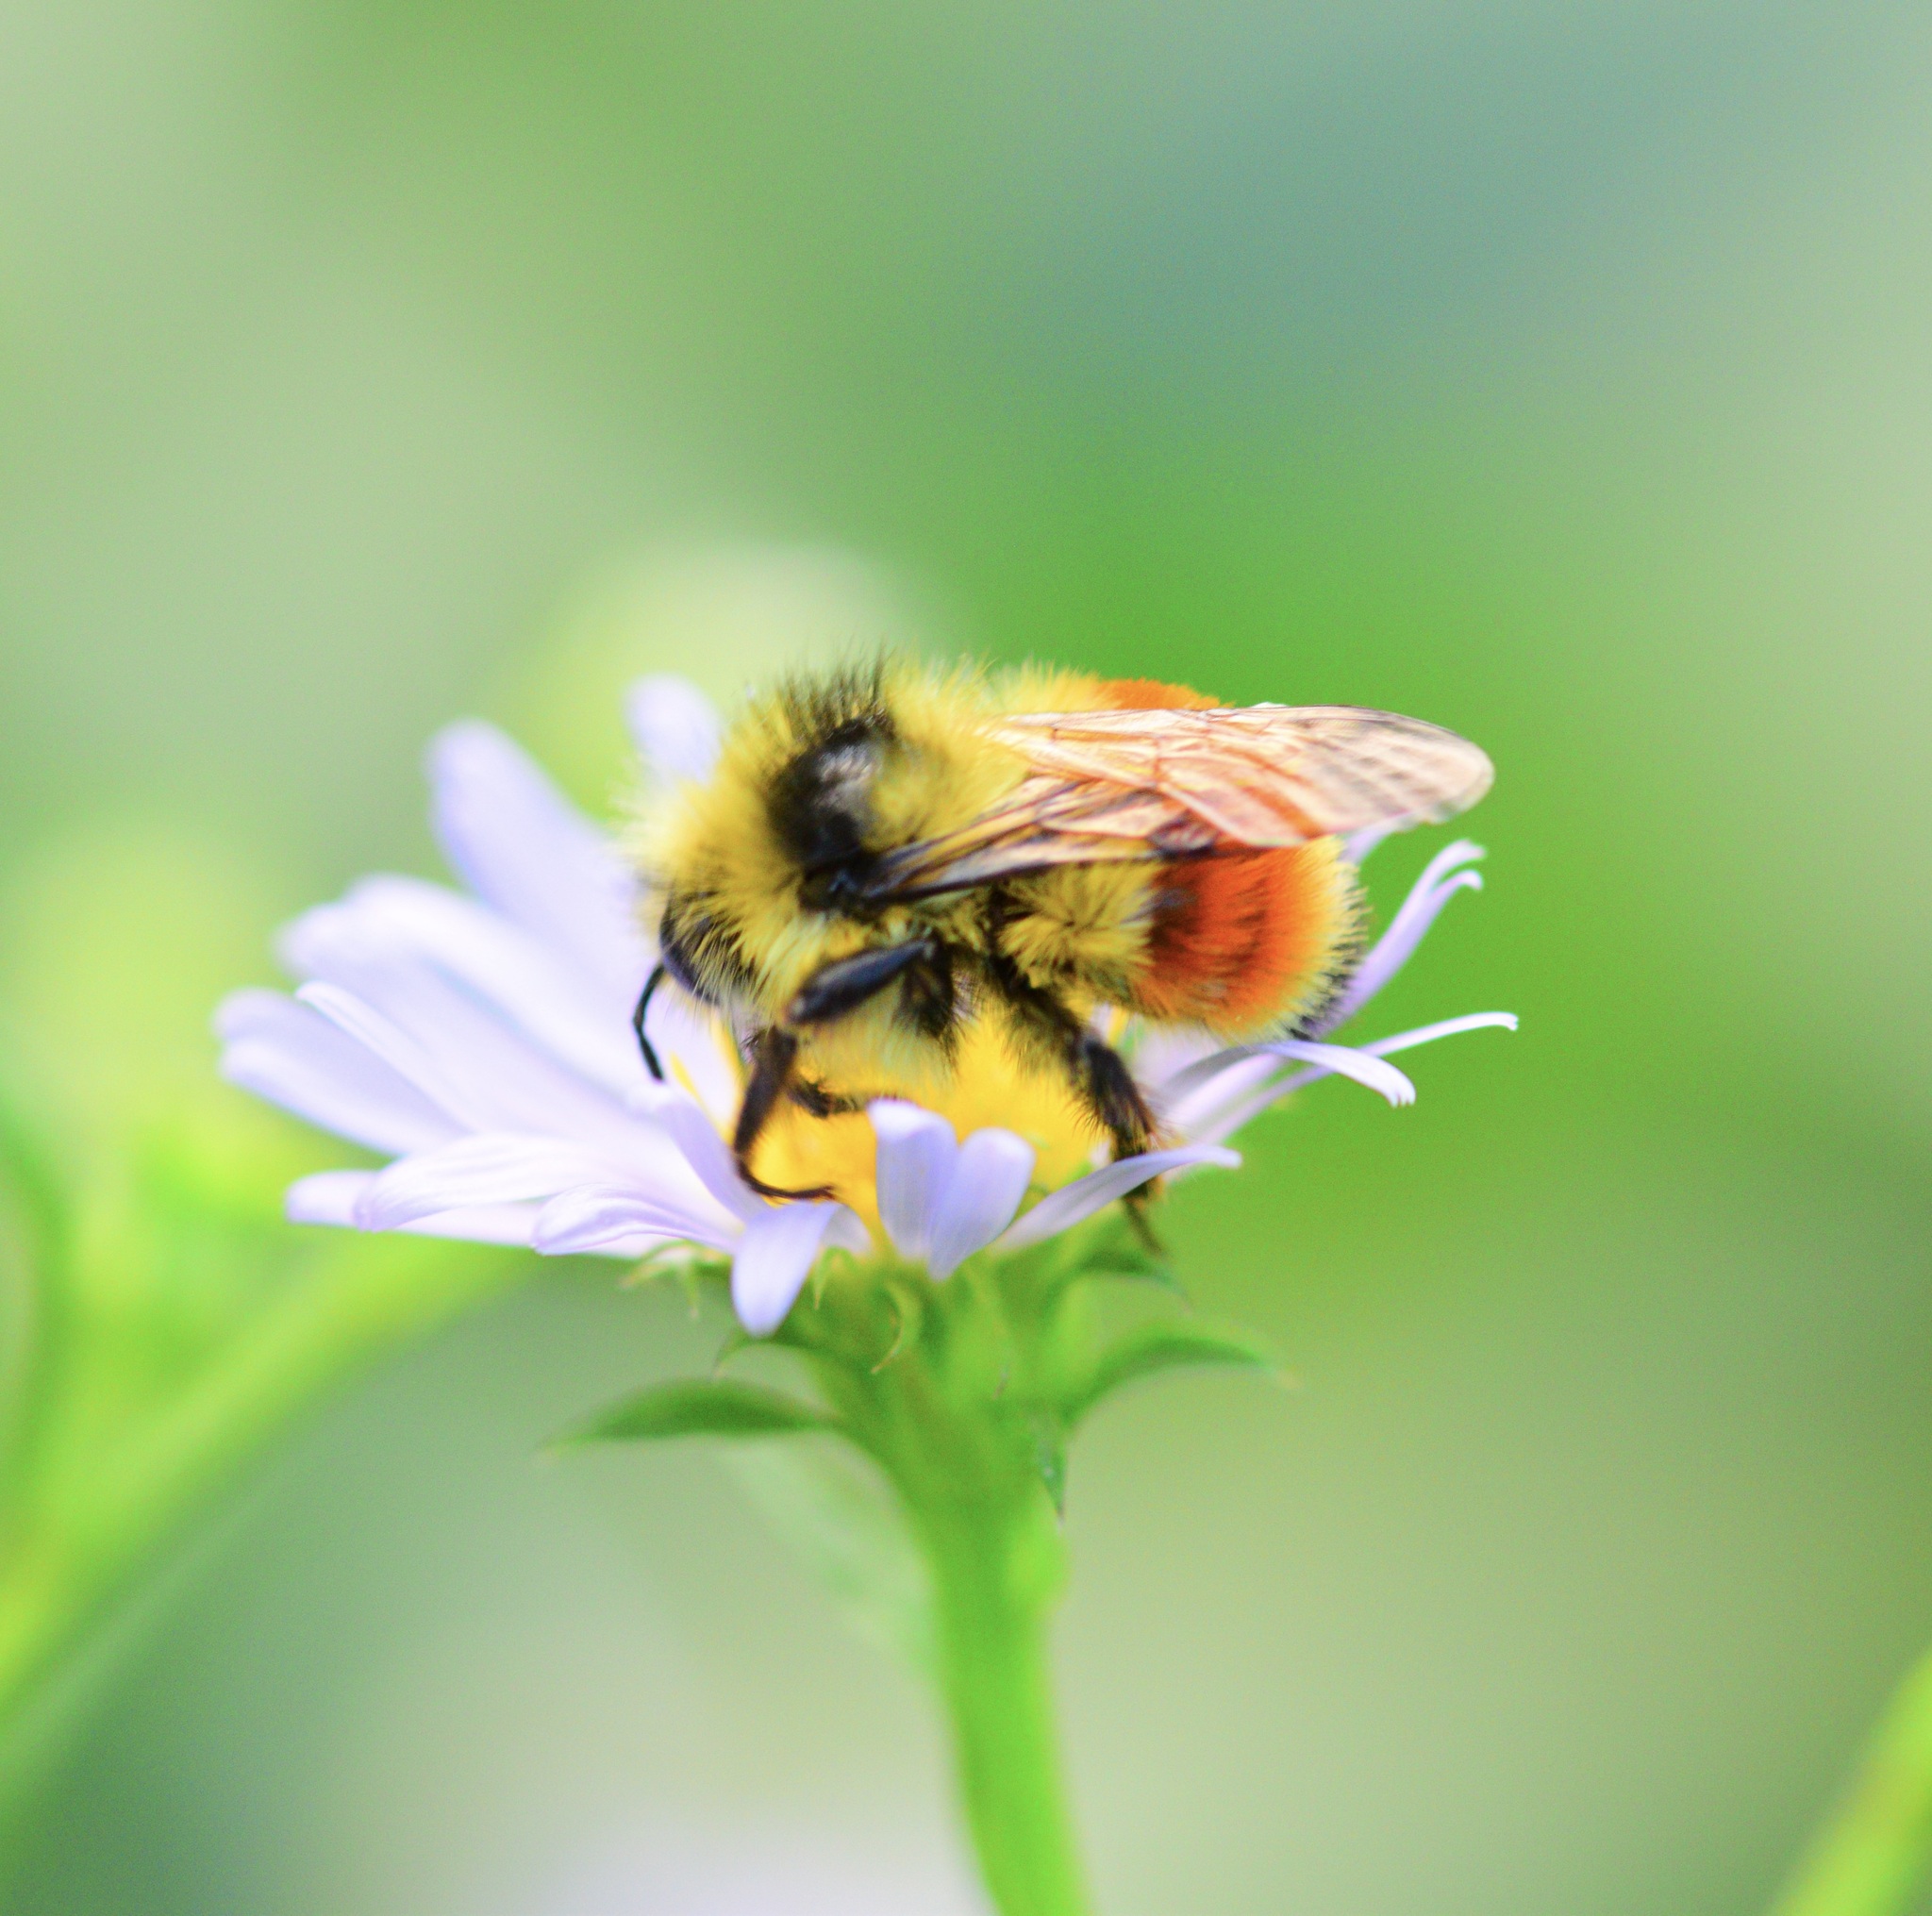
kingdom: Animalia
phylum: Arthropoda
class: Insecta
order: Hymenoptera
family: Apidae
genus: Bombus
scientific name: Bombus ternarius
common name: Tri-colored bumble bee
